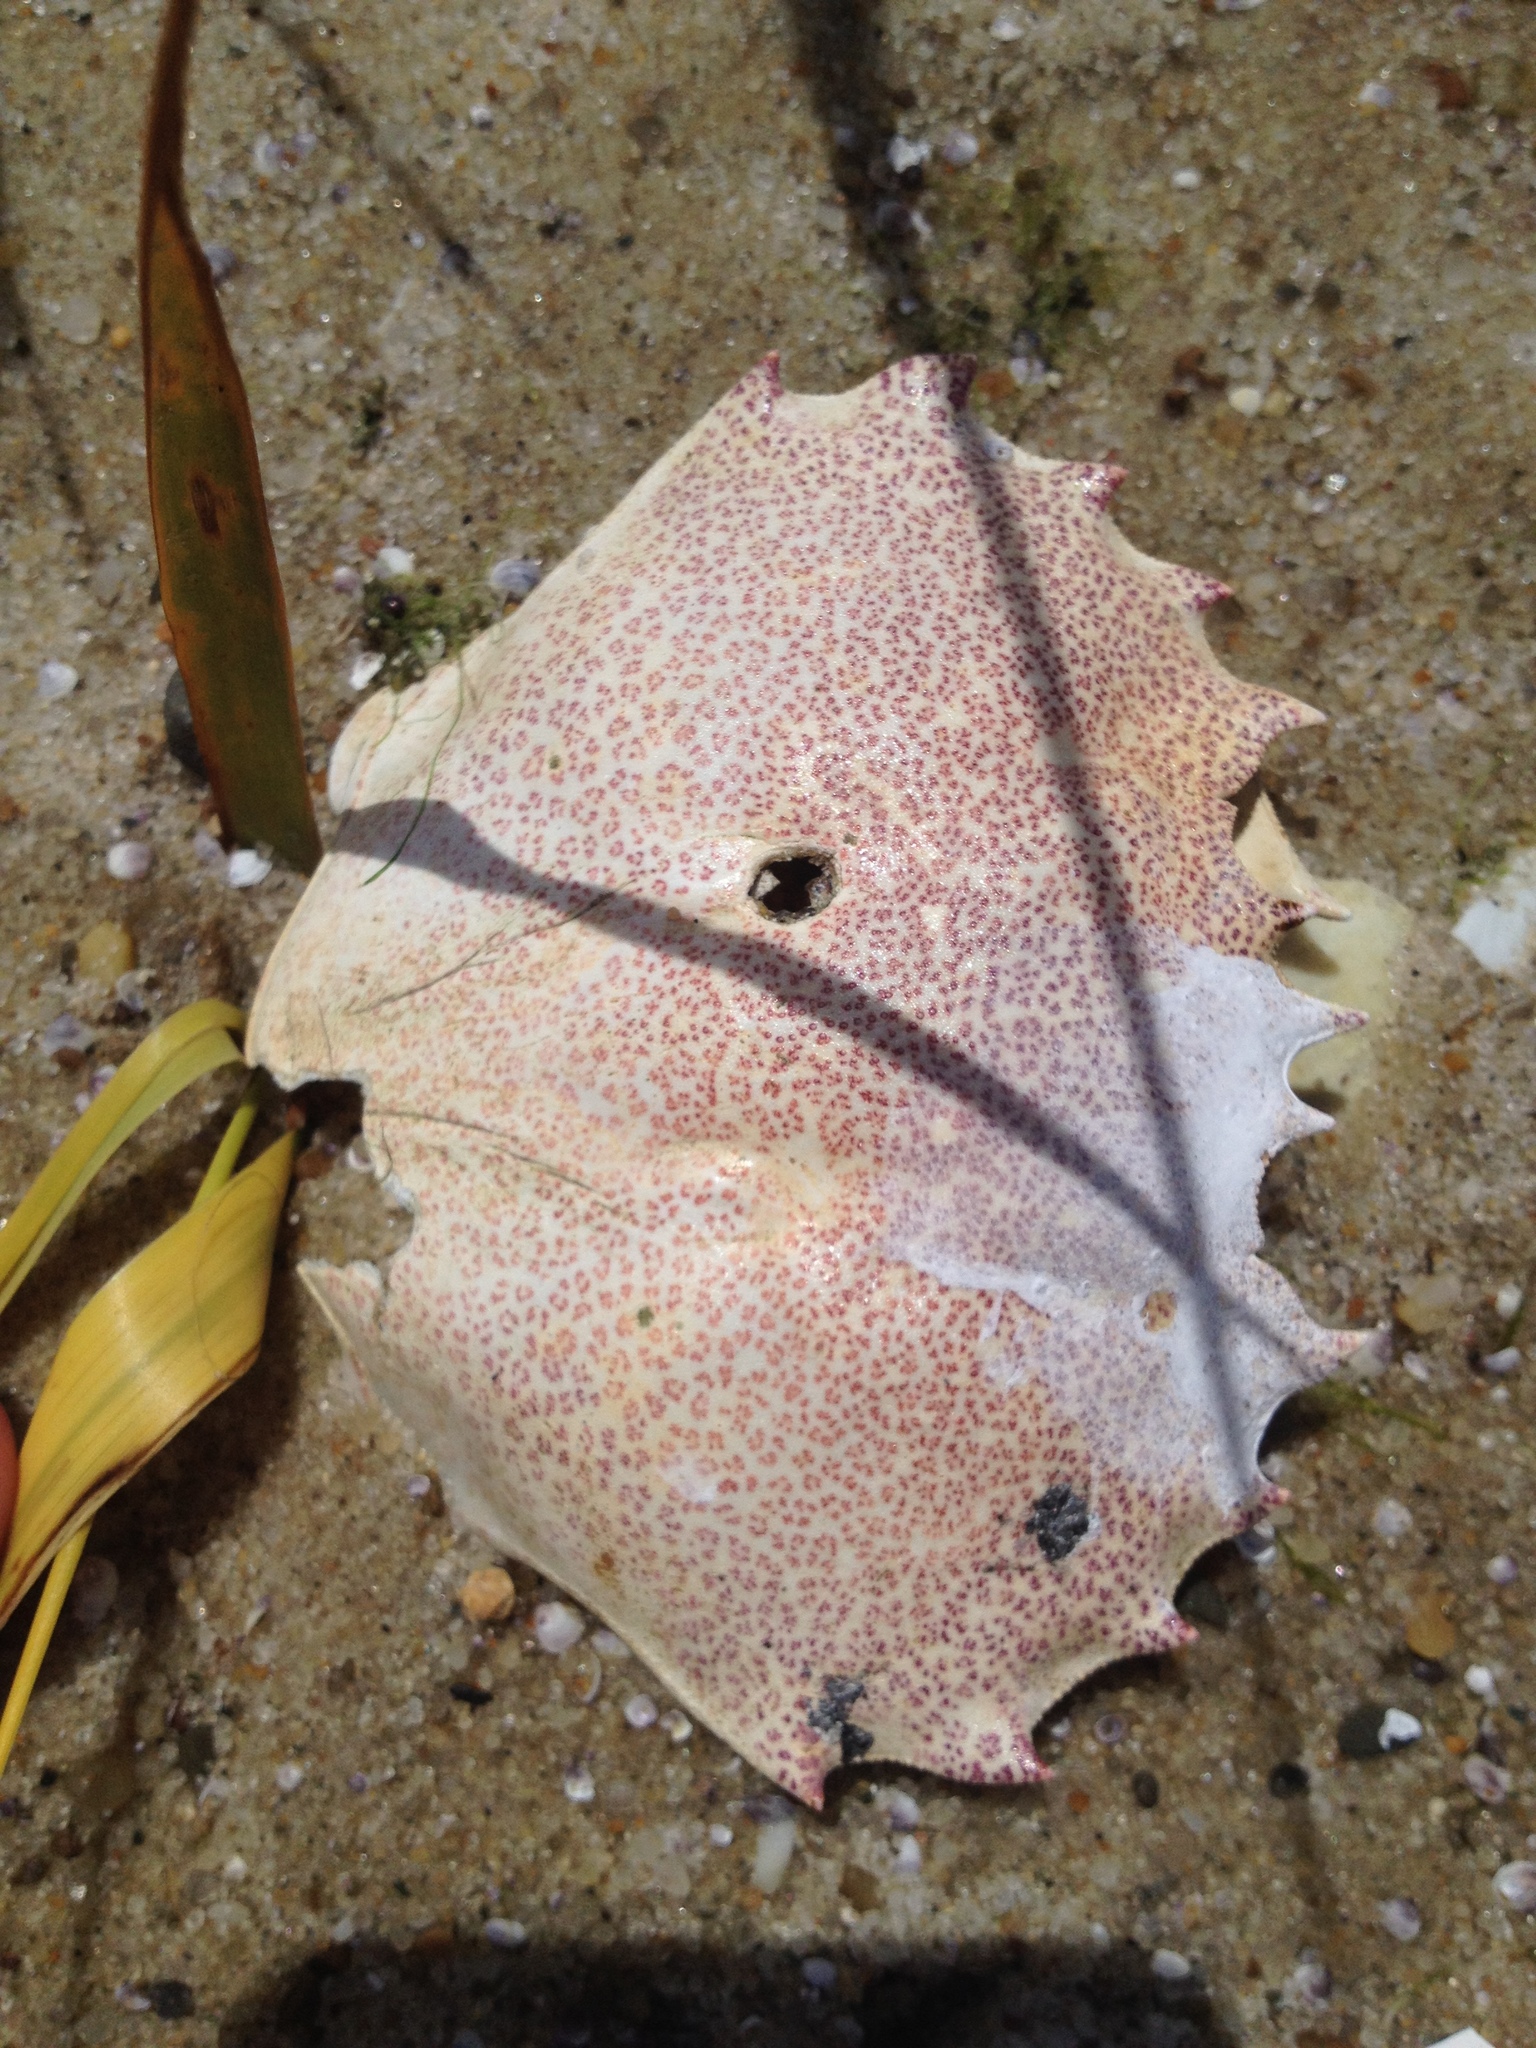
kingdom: Animalia
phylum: Arthropoda
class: Malacostraca
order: Decapoda
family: Ovalipidae
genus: Ovalipes
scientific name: Ovalipes ocellatus
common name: Lady crab
